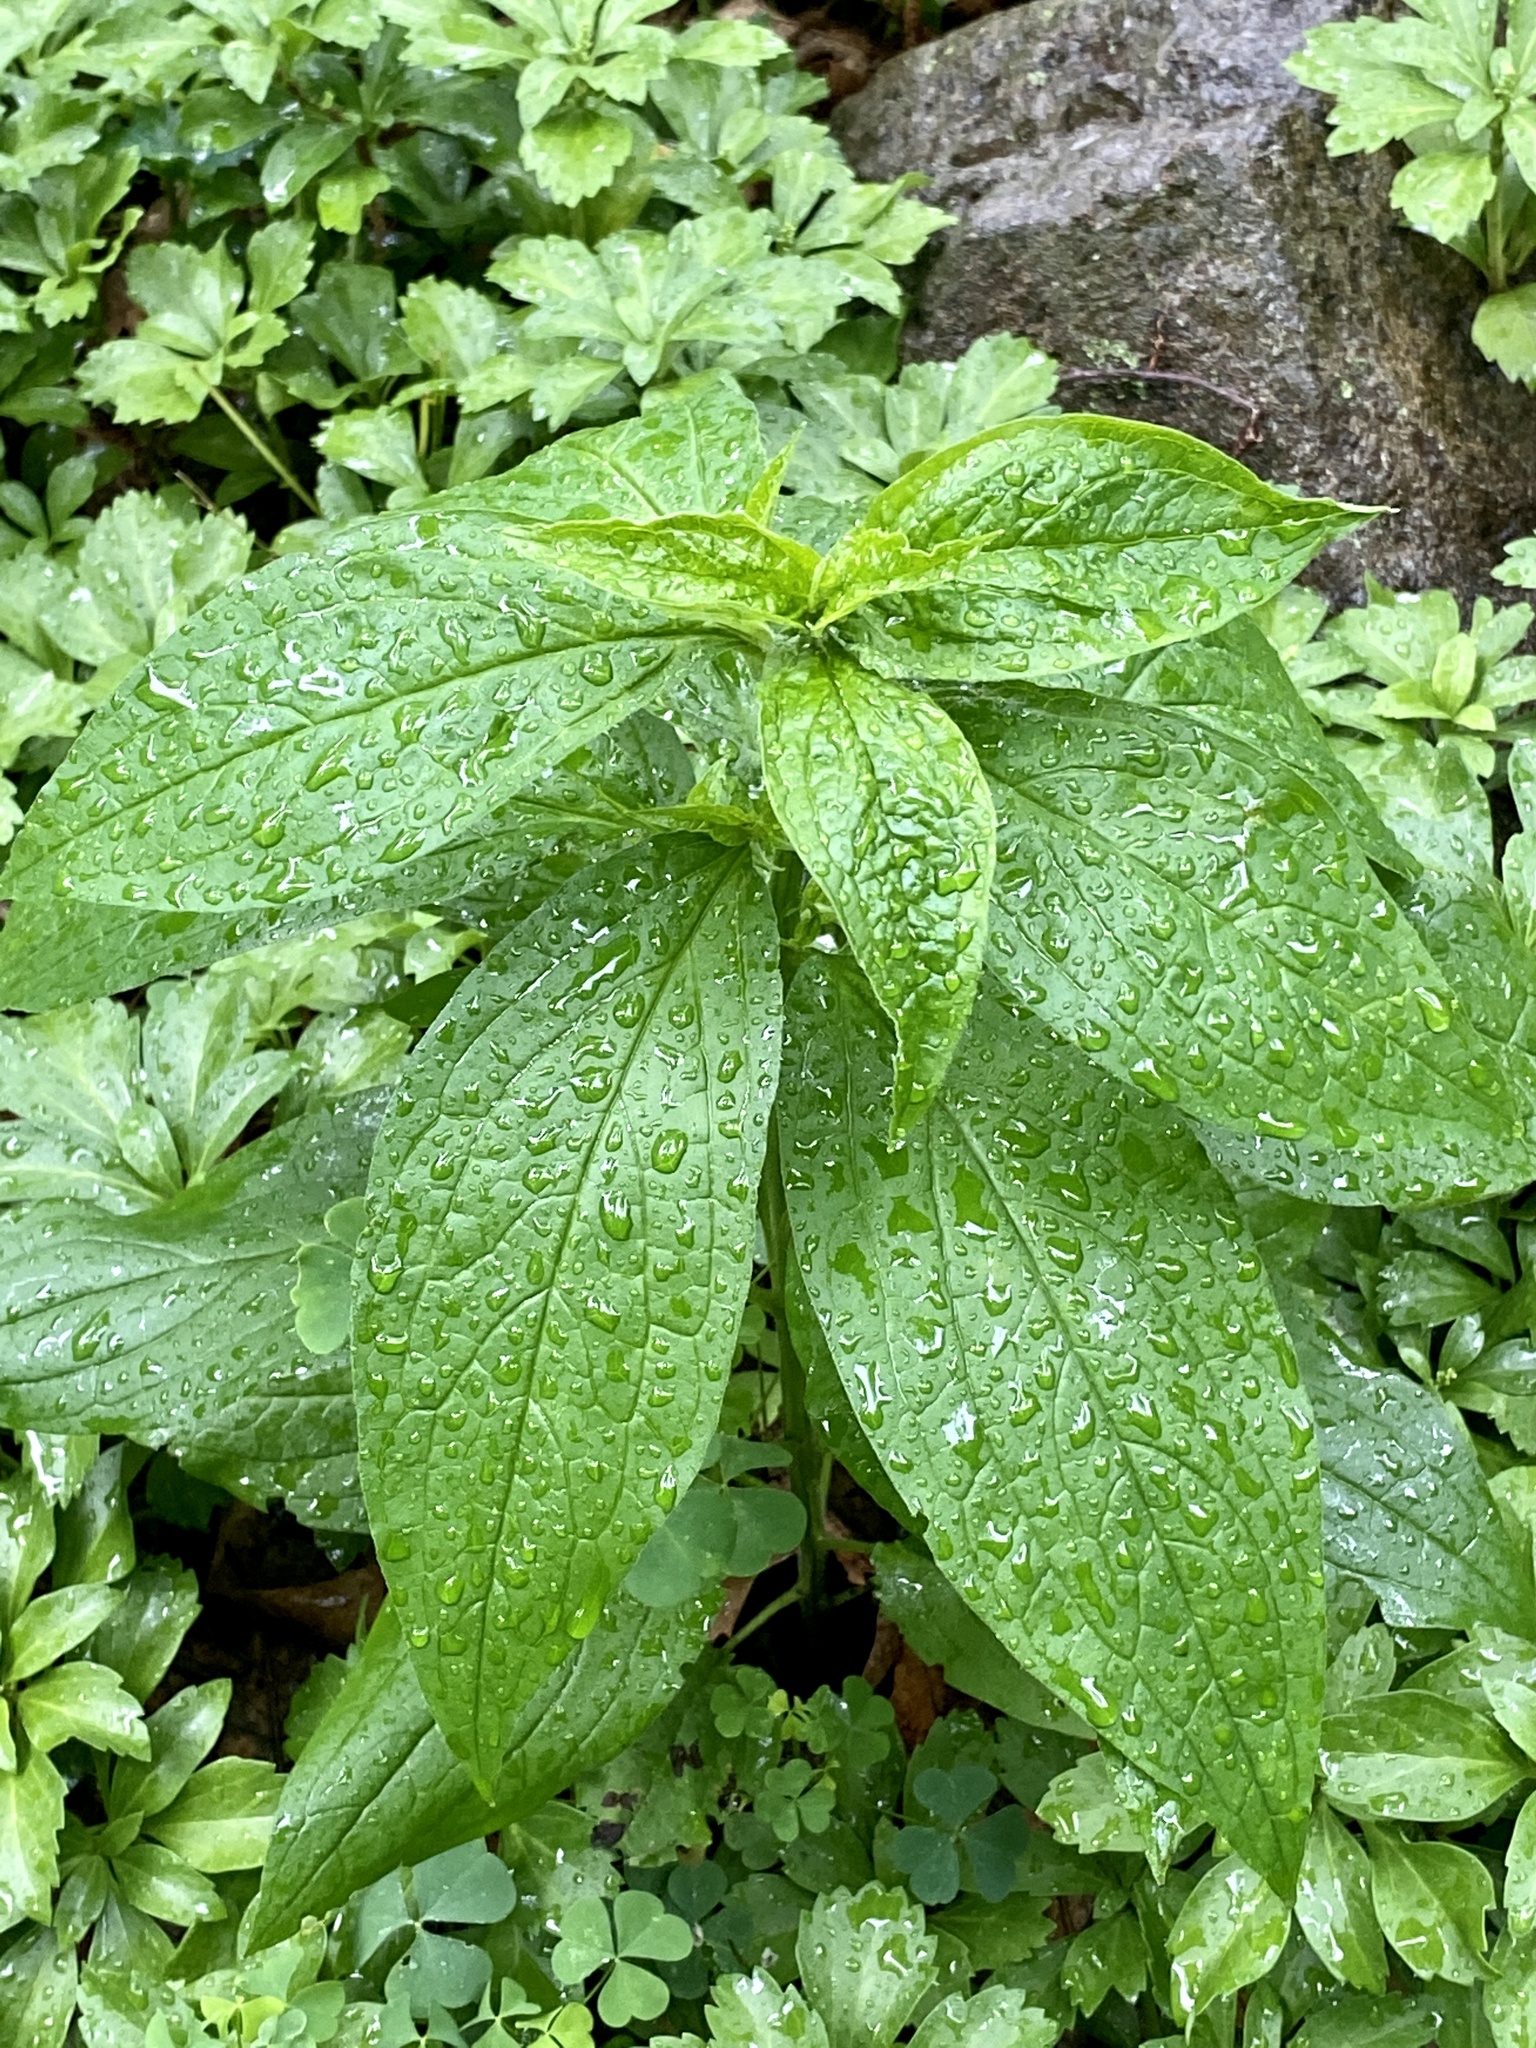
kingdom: Plantae
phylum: Tracheophyta
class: Magnoliopsida
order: Boraginales
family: Boraginaceae
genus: Hackelia
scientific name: Hackelia virginiana
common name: Beggar's-lice
